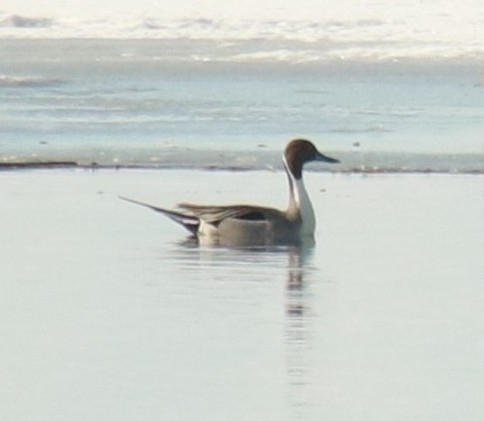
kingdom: Animalia
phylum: Chordata
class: Aves
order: Anseriformes
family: Anatidae
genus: Anas
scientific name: Anas acuta
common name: Northern pintail
